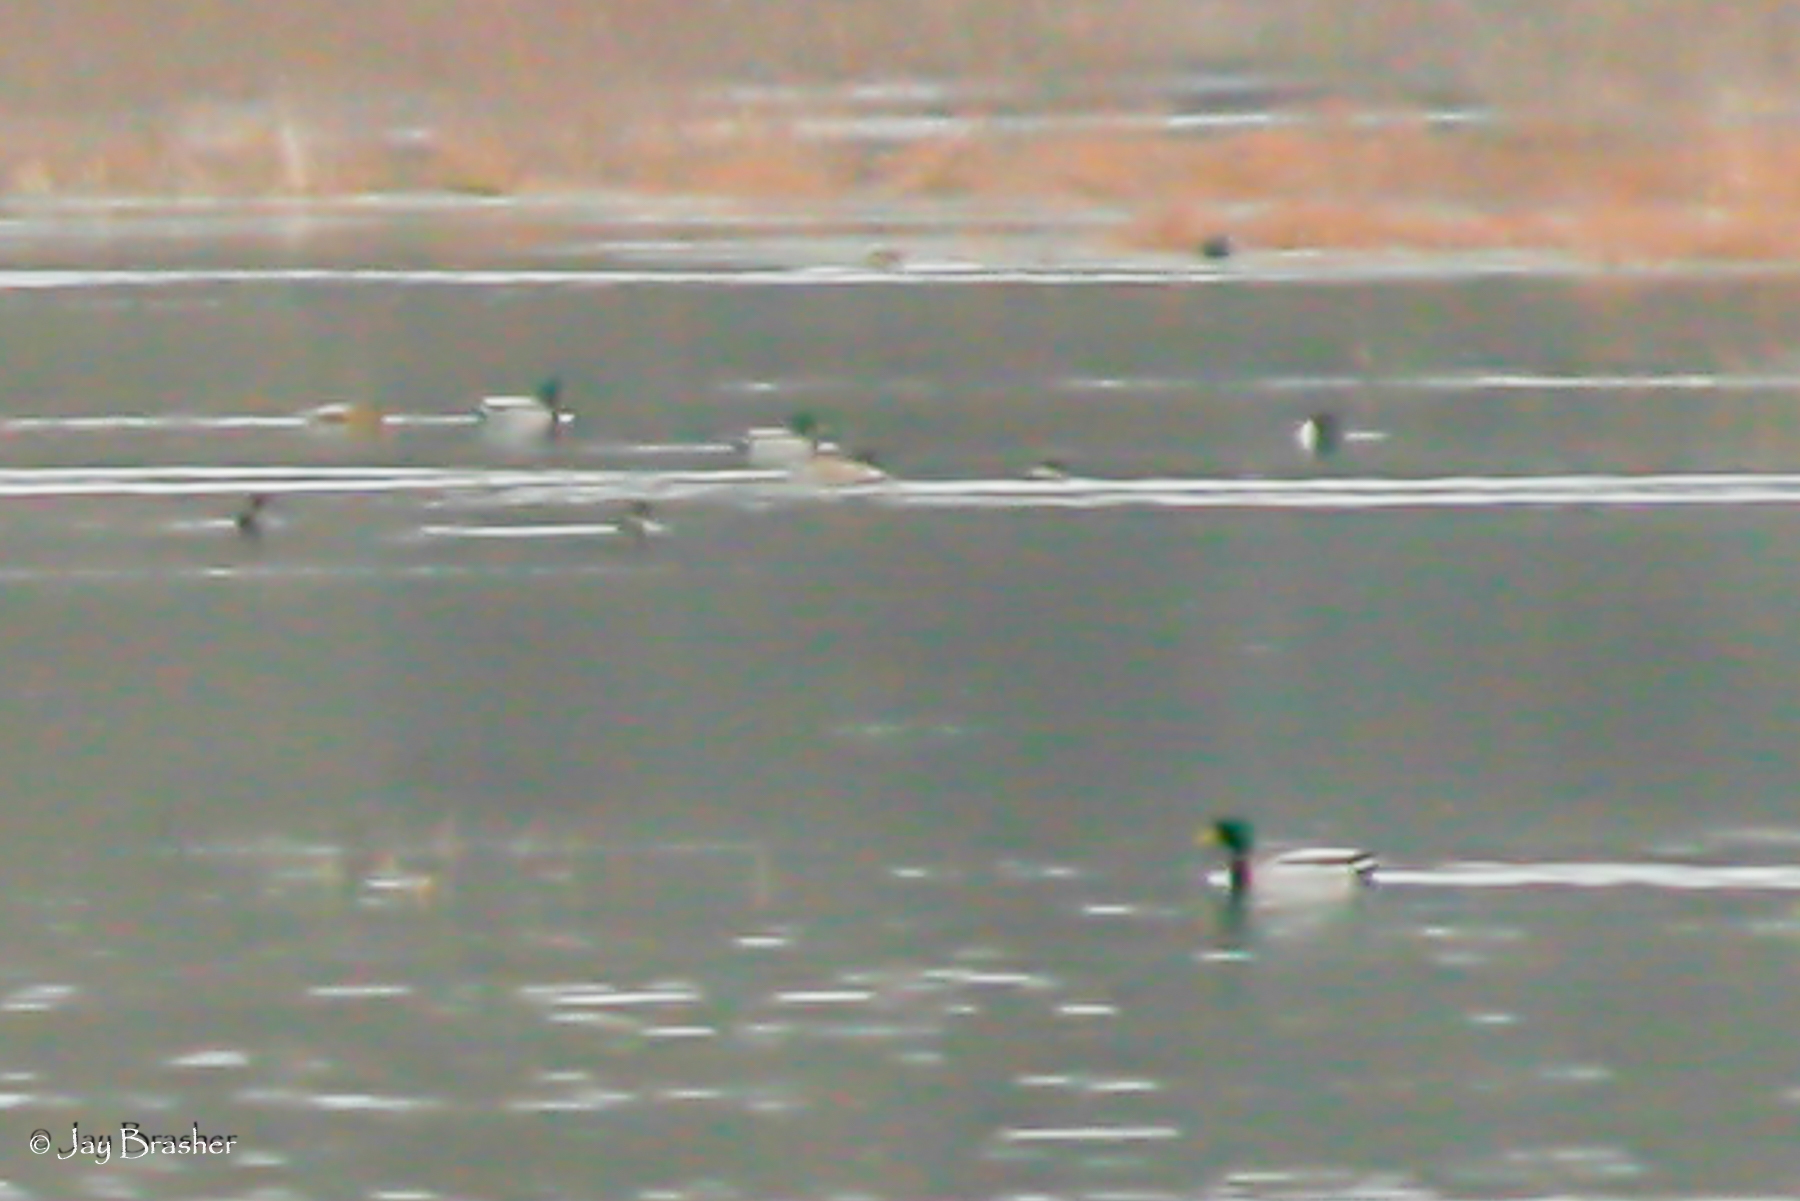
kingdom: Animalia
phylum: Chordata
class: Aves
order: Anseriformes
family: Anatidae
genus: Anas
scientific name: Anas platyrhynchos
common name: Mallard
